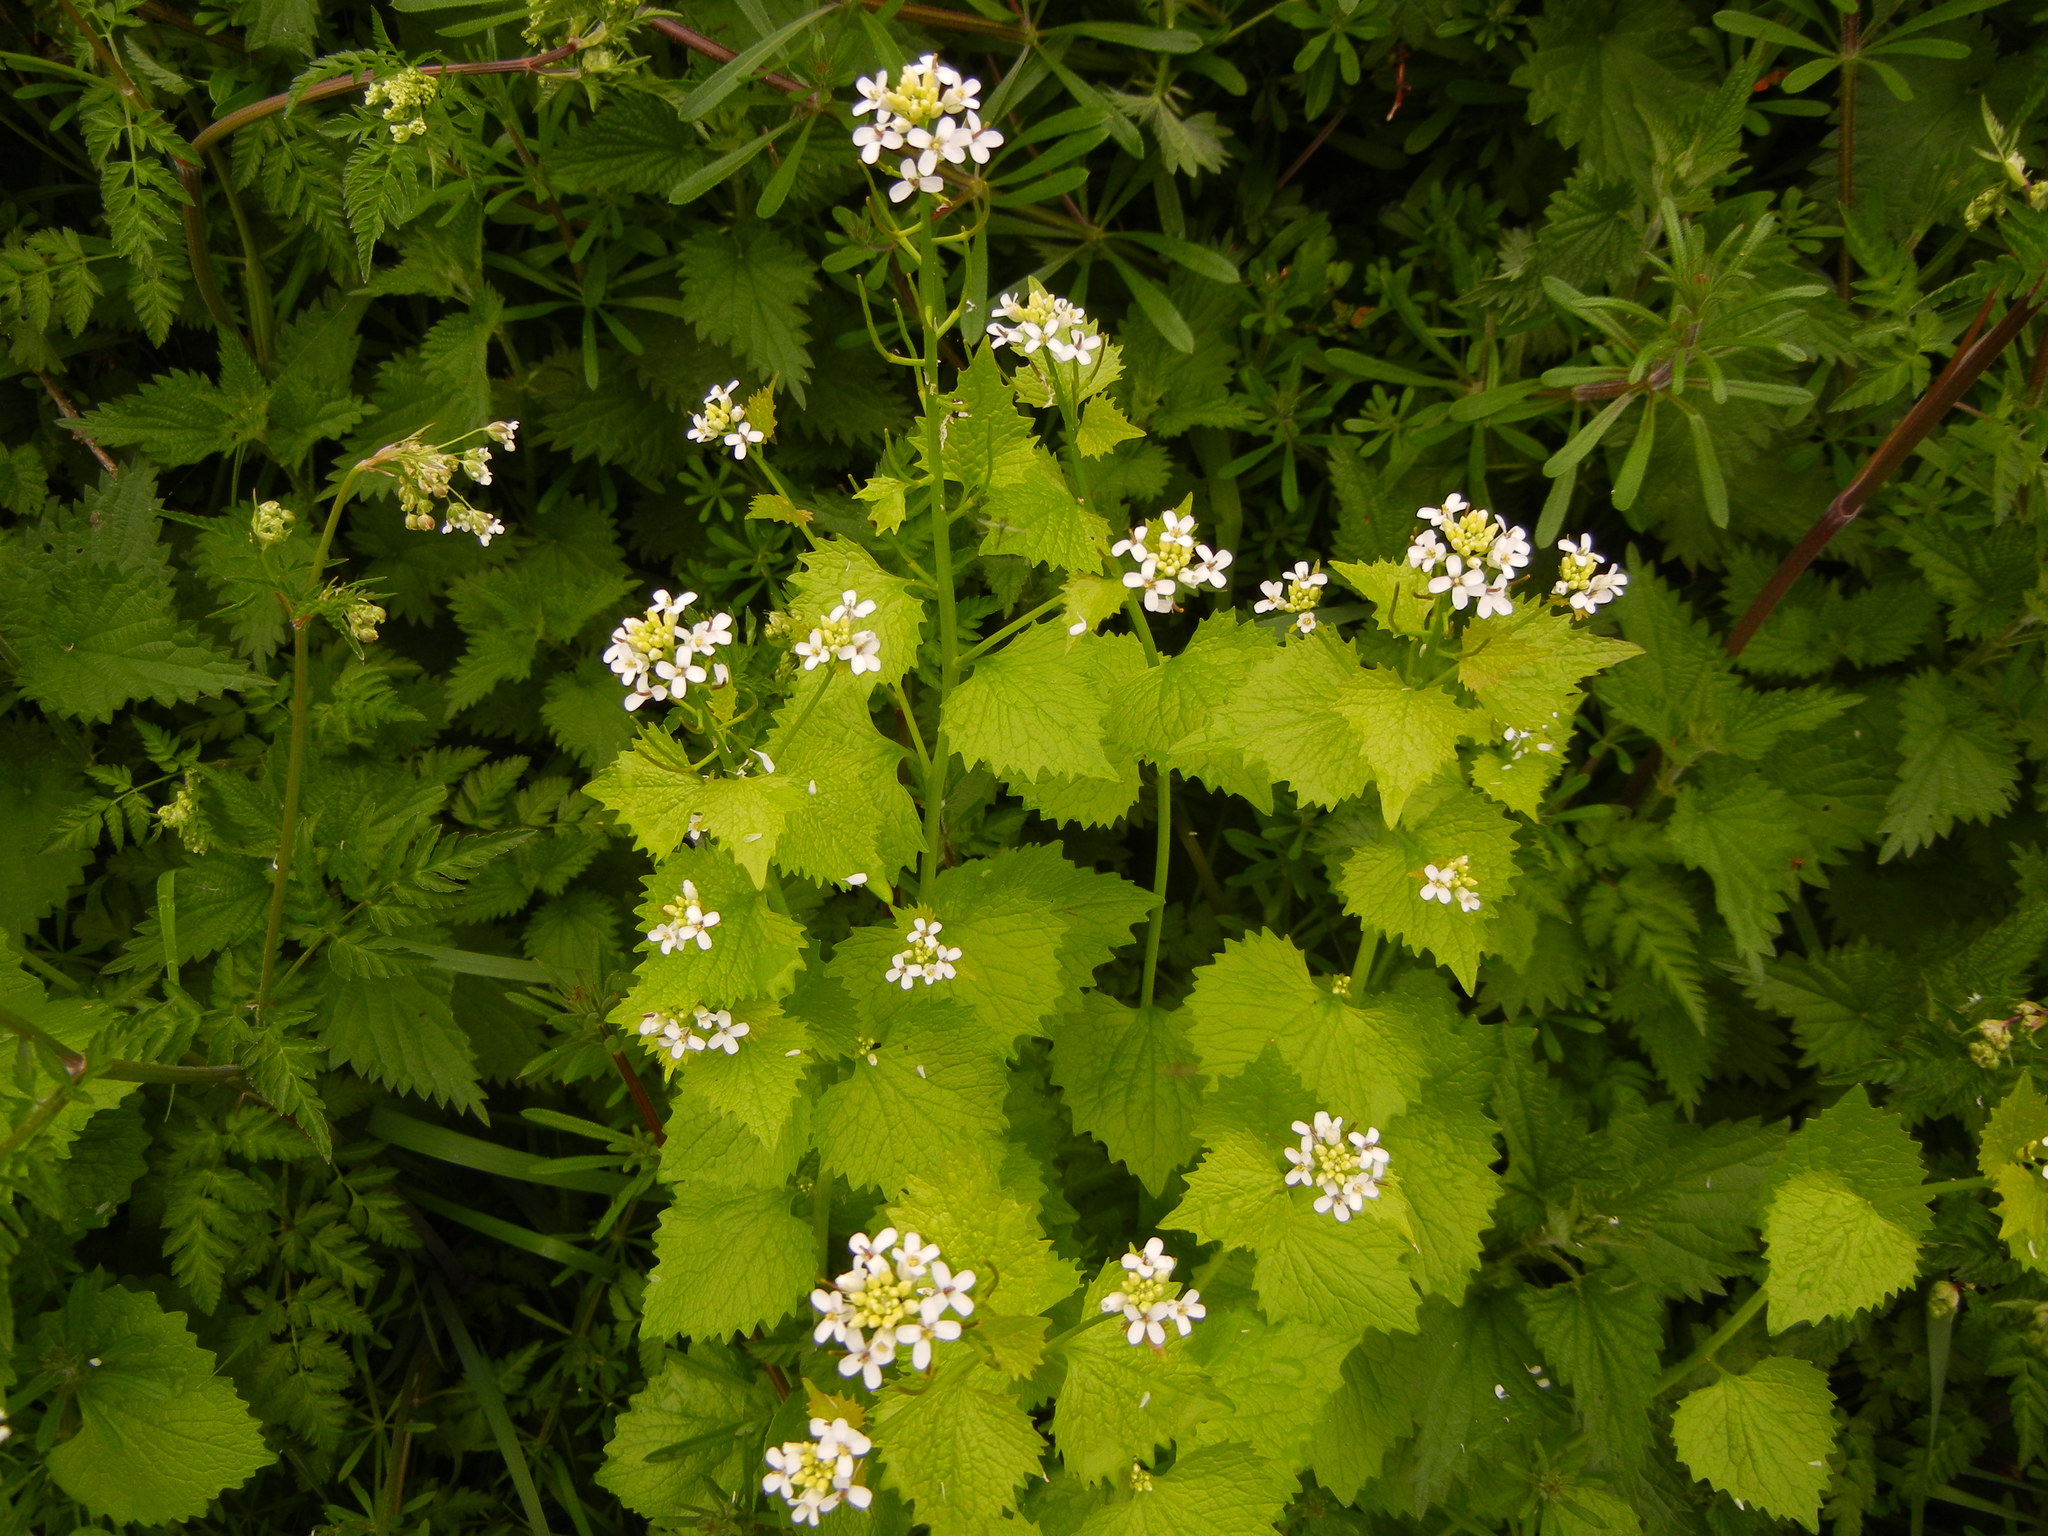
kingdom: Plantae
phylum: Tracheophyta
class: Magnoliopsida
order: Brassicales
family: Brassicaceae
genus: Alliaria
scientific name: Alliaria petiolata
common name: Garlic mustard
